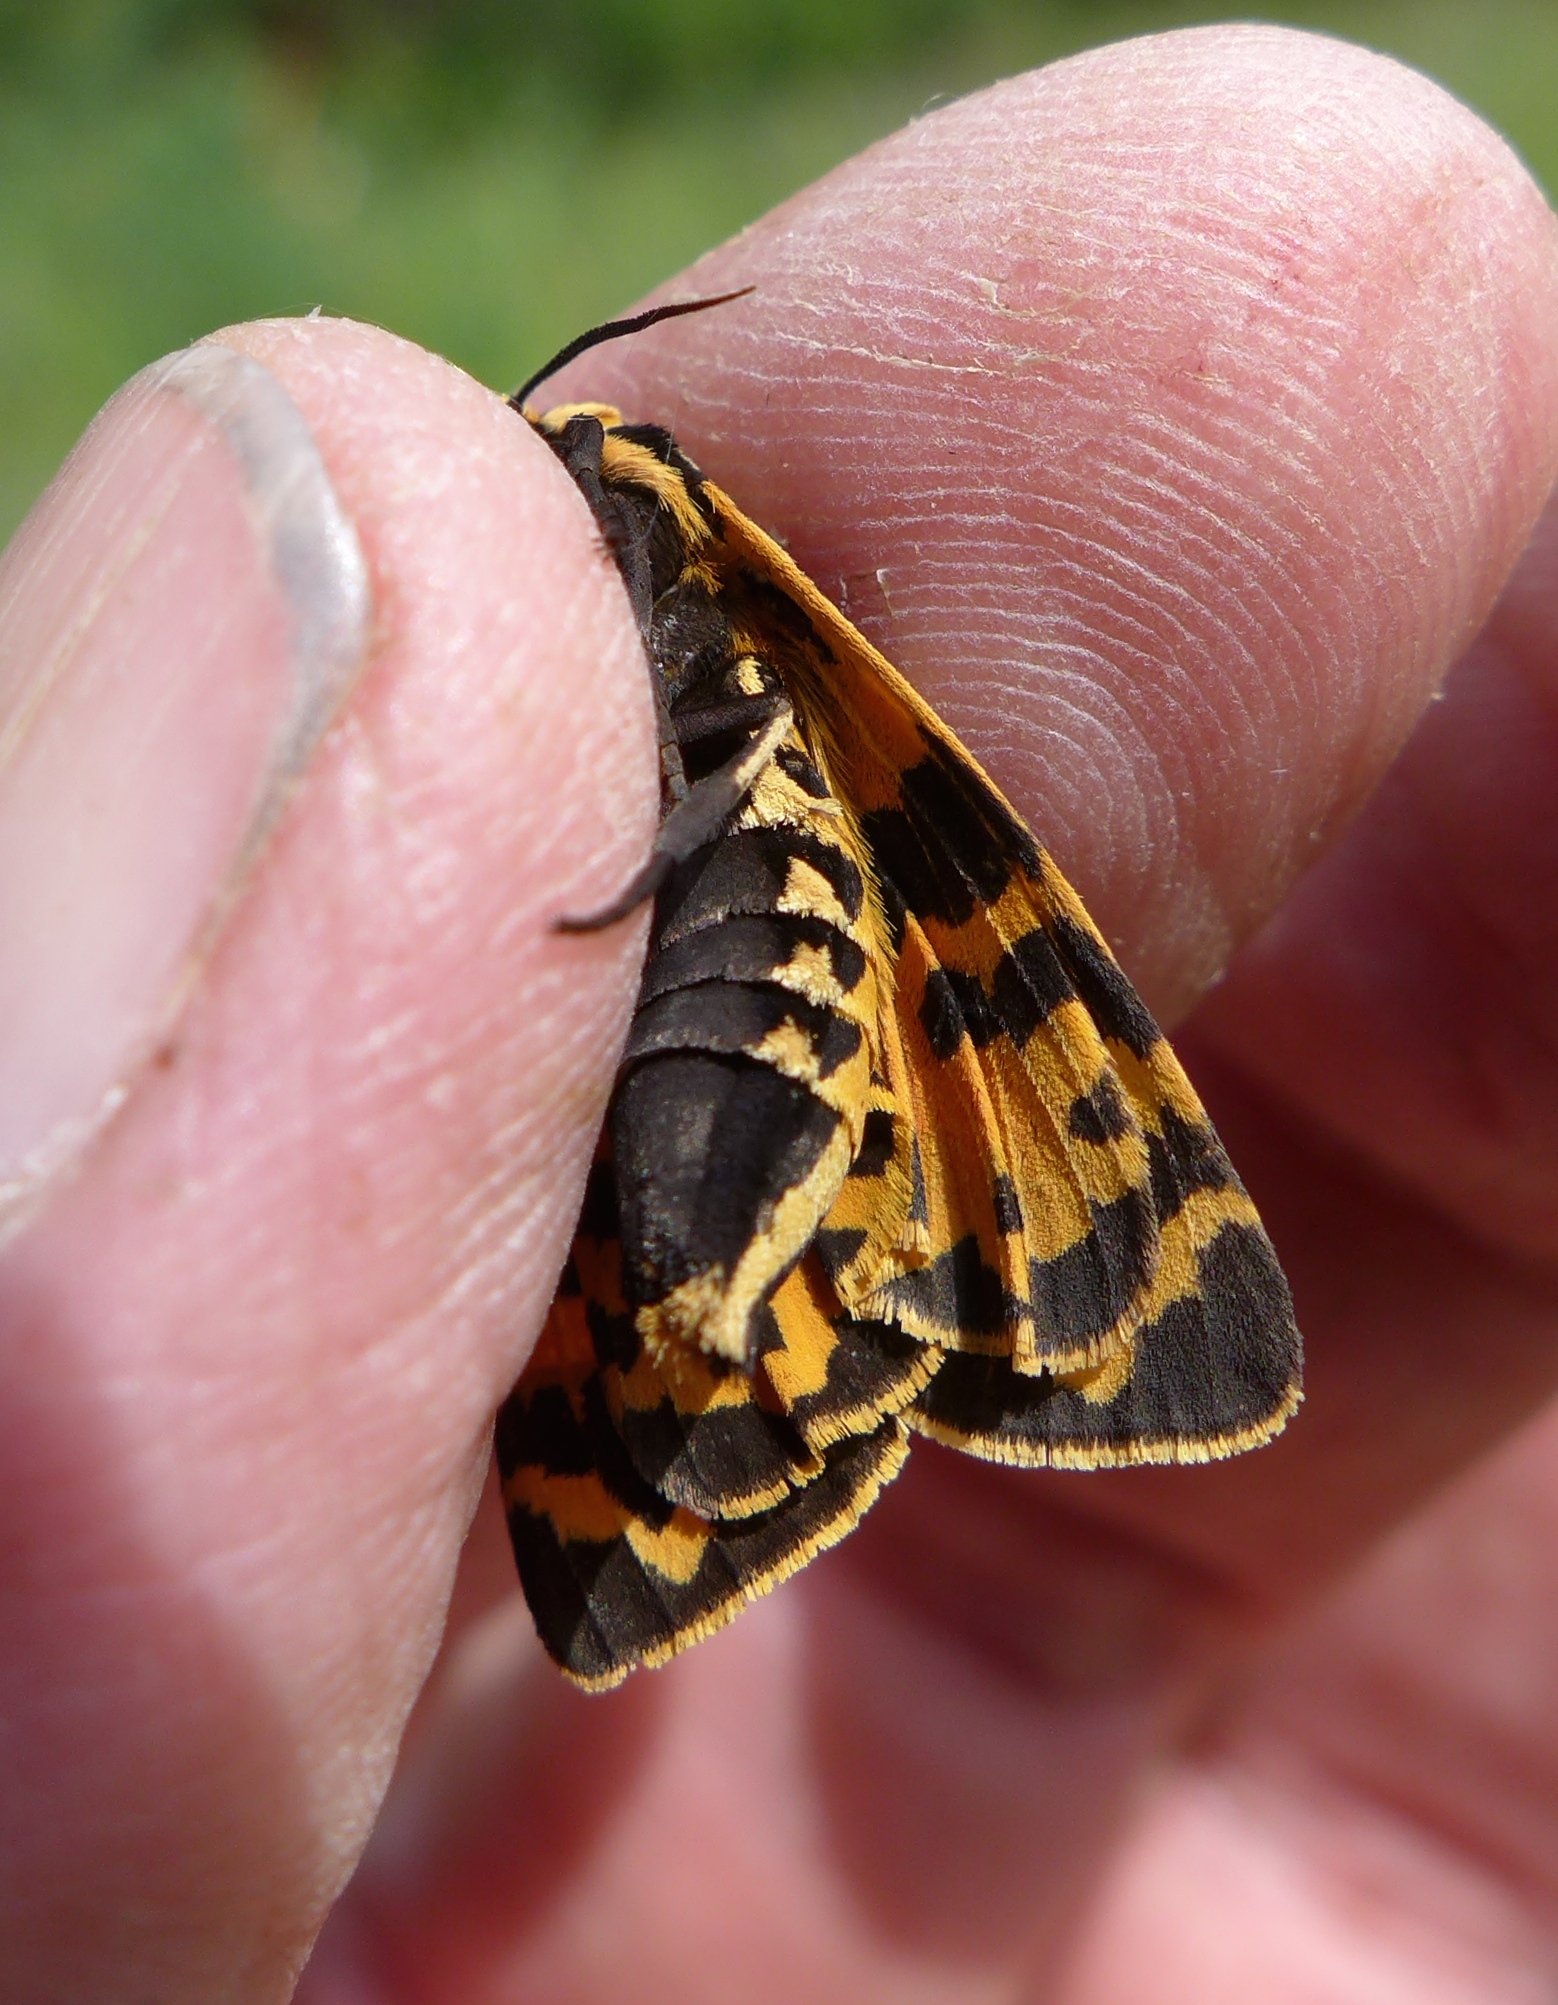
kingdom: Animalia
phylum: Arthropoda
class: Insecta
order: Lepidoptera
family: Erebidae
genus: Apantesis
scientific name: Apantesis
